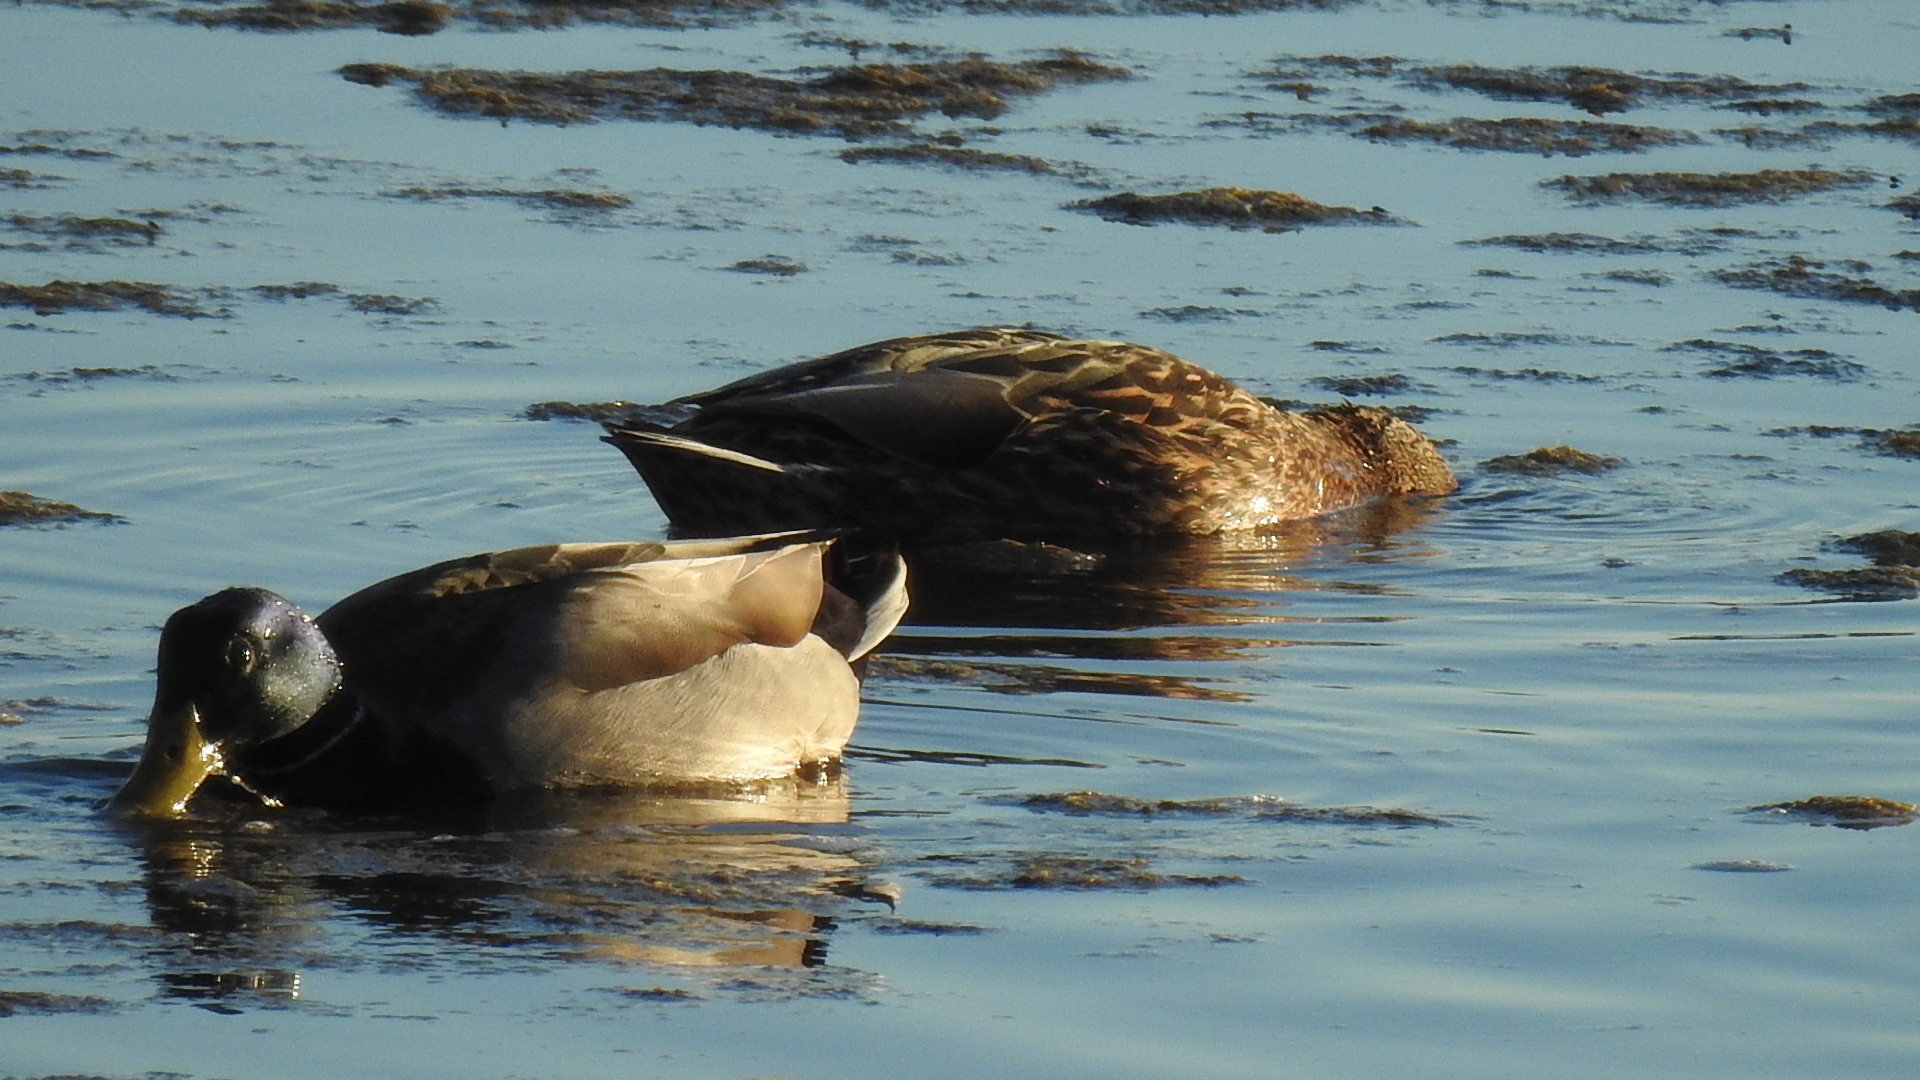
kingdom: Animalia
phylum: Chordata
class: Aves
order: Anseriformes
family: Anatidae
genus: Anas
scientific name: Anas platyrhynchos
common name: Mallard
